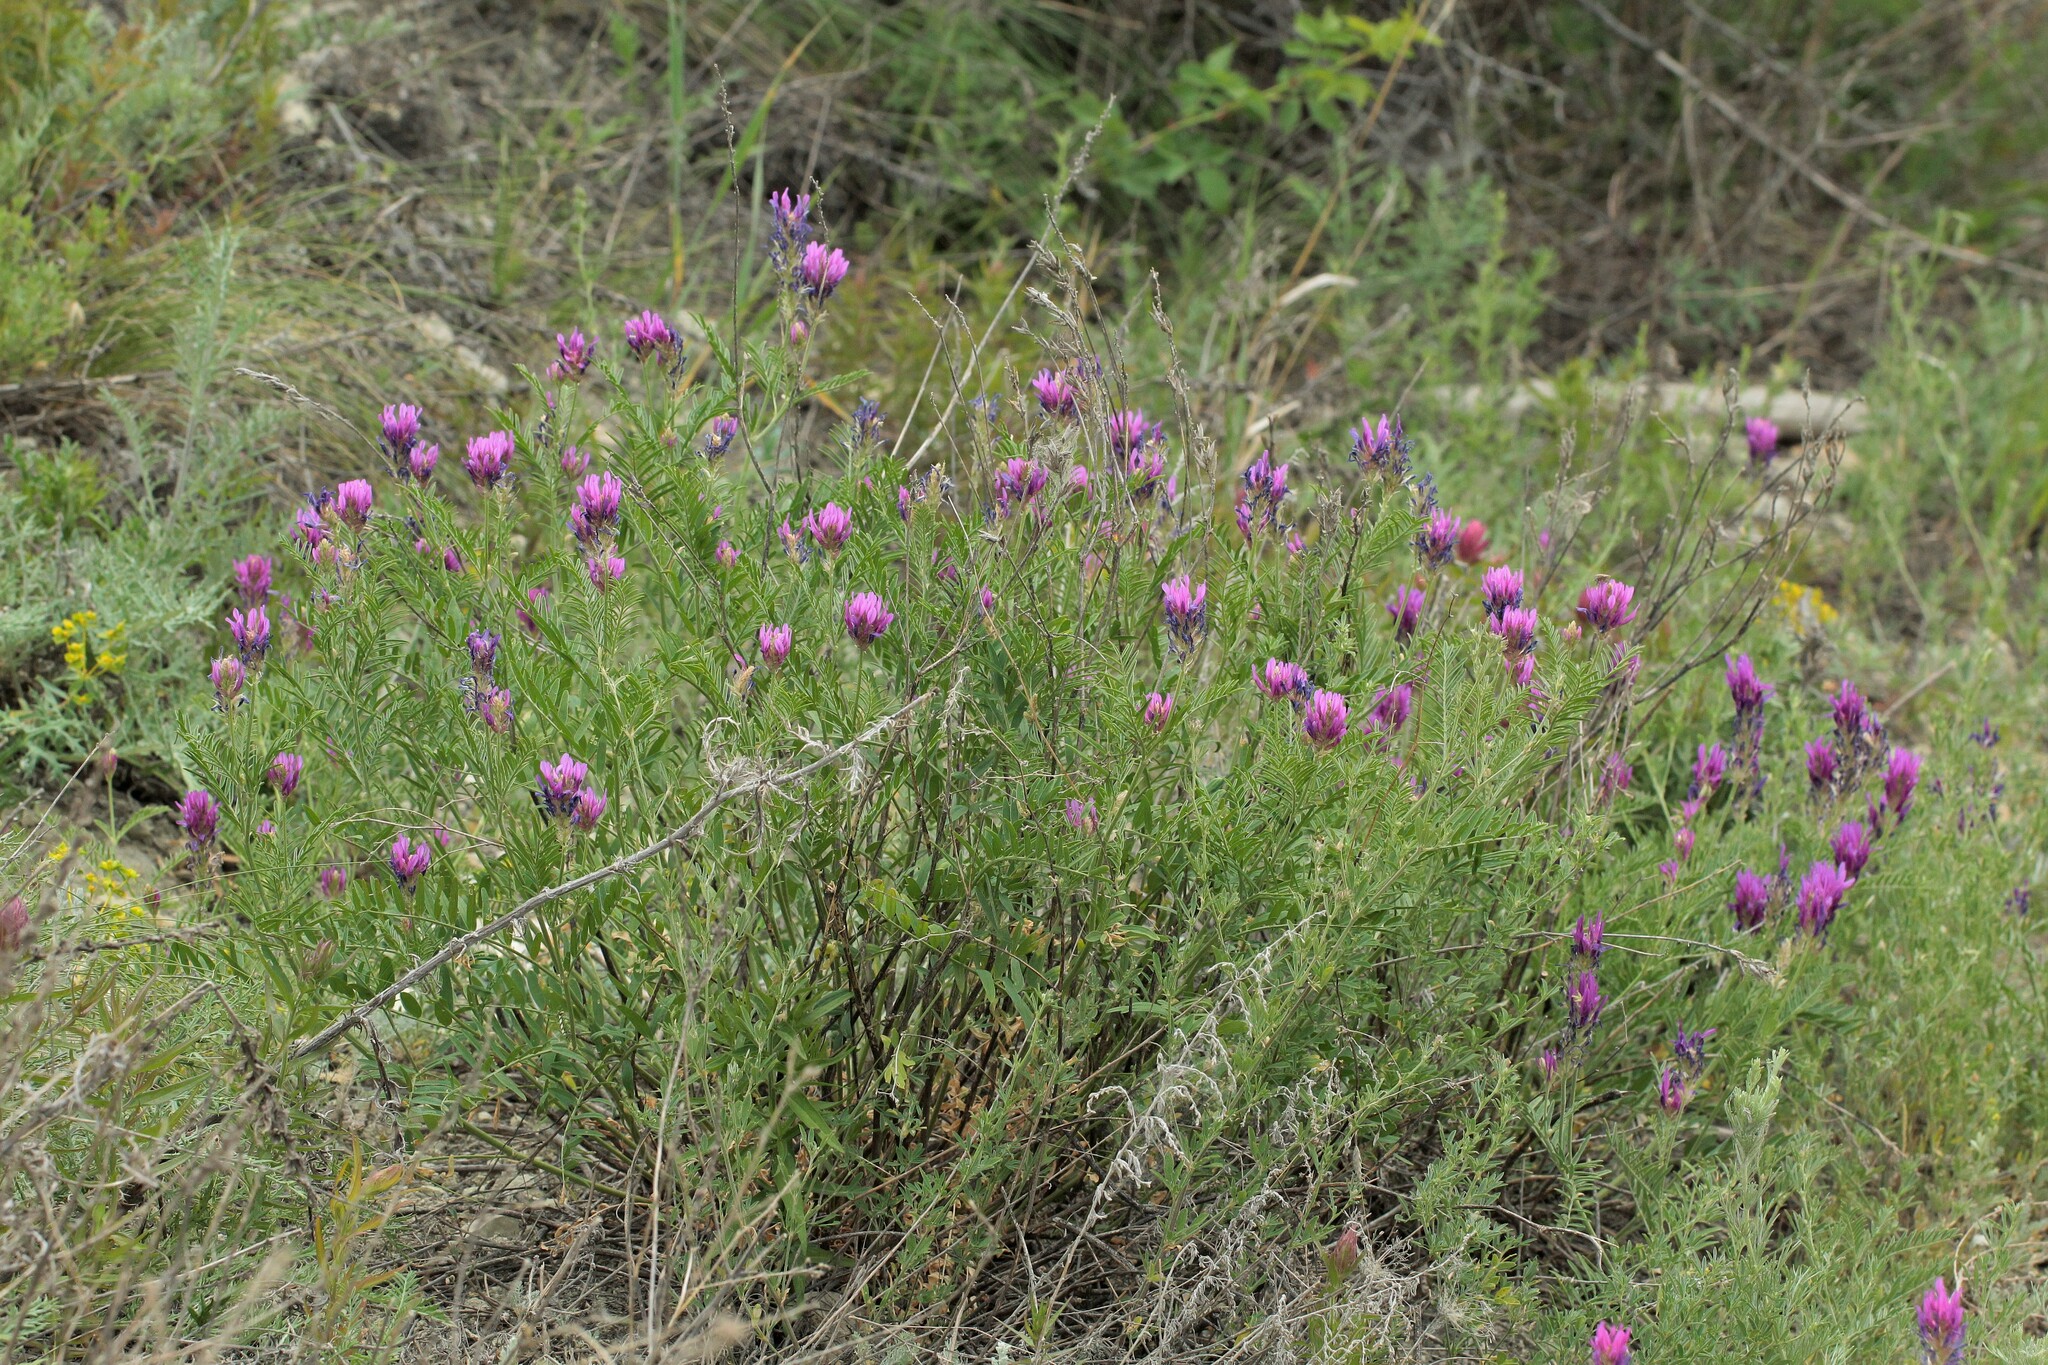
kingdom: Plantae
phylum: Tracheophyta
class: Magnoliopsida
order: Fabales
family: Fabaceae
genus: Astragalus
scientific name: Astragalus onobrychis
